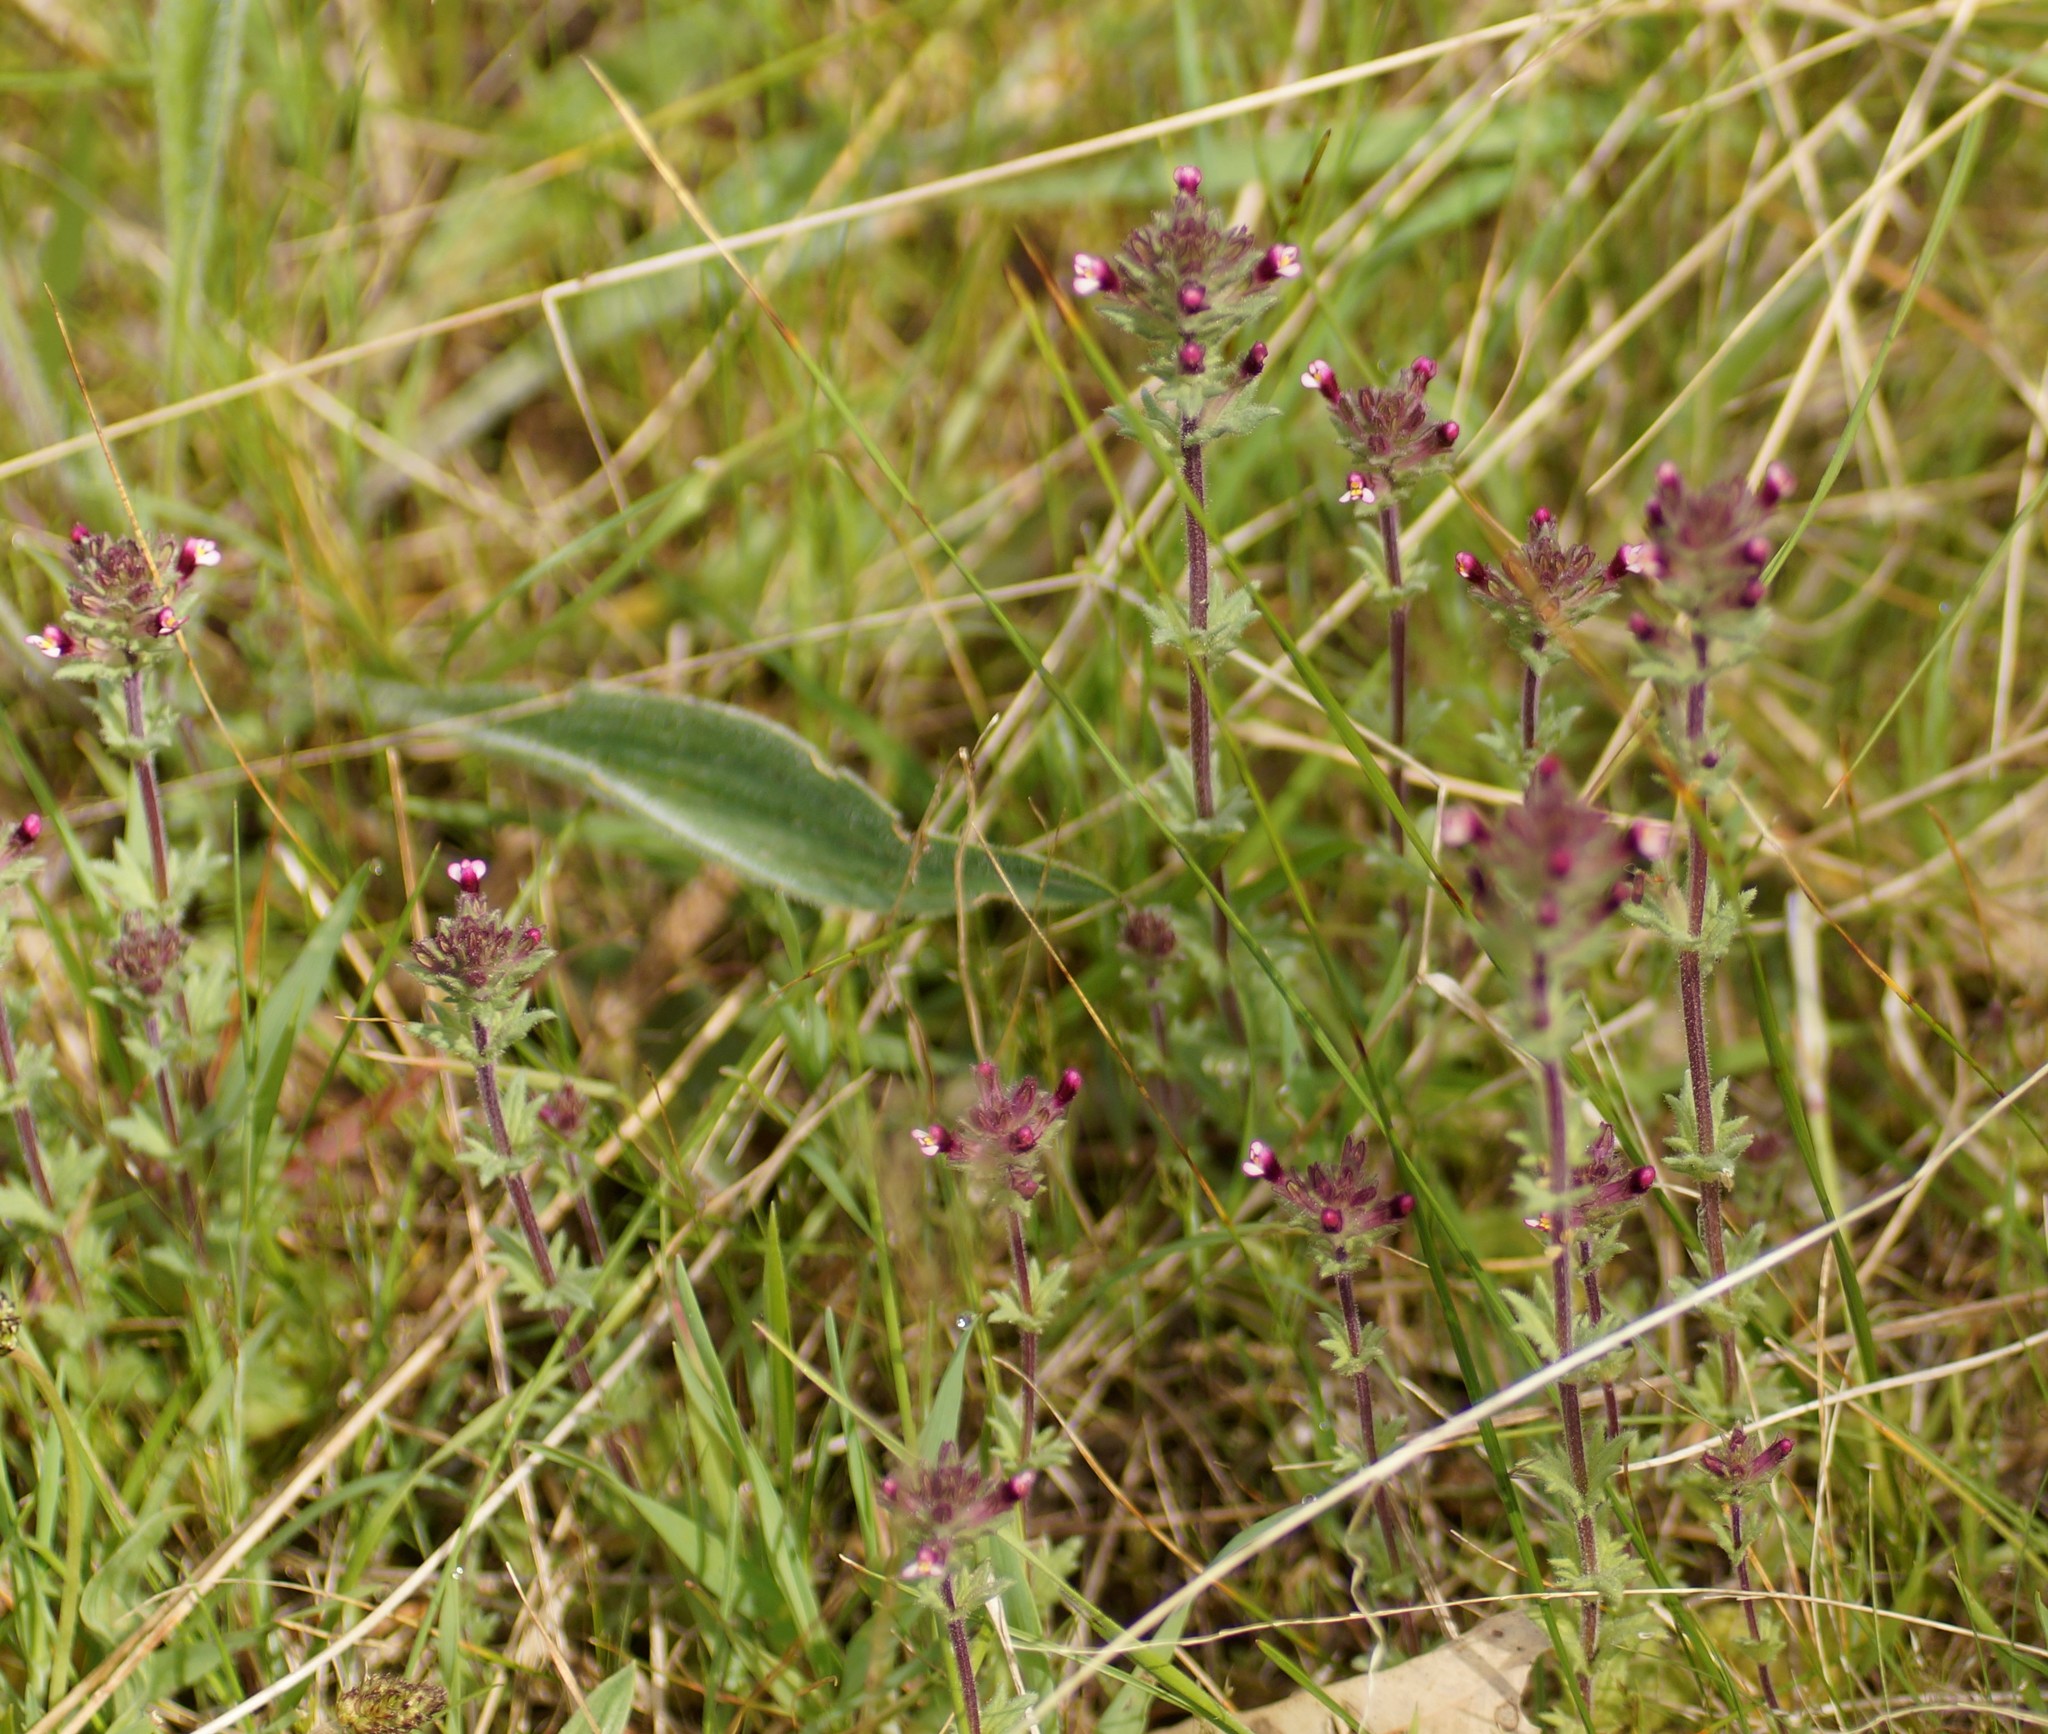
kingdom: Plantae
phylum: Tracheophyta
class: Magnoliopsida
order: Lamiales
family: Orobanchaceae
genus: Parentucellia
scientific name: Parentucellia latifolia
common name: Broadleaf glandweed
